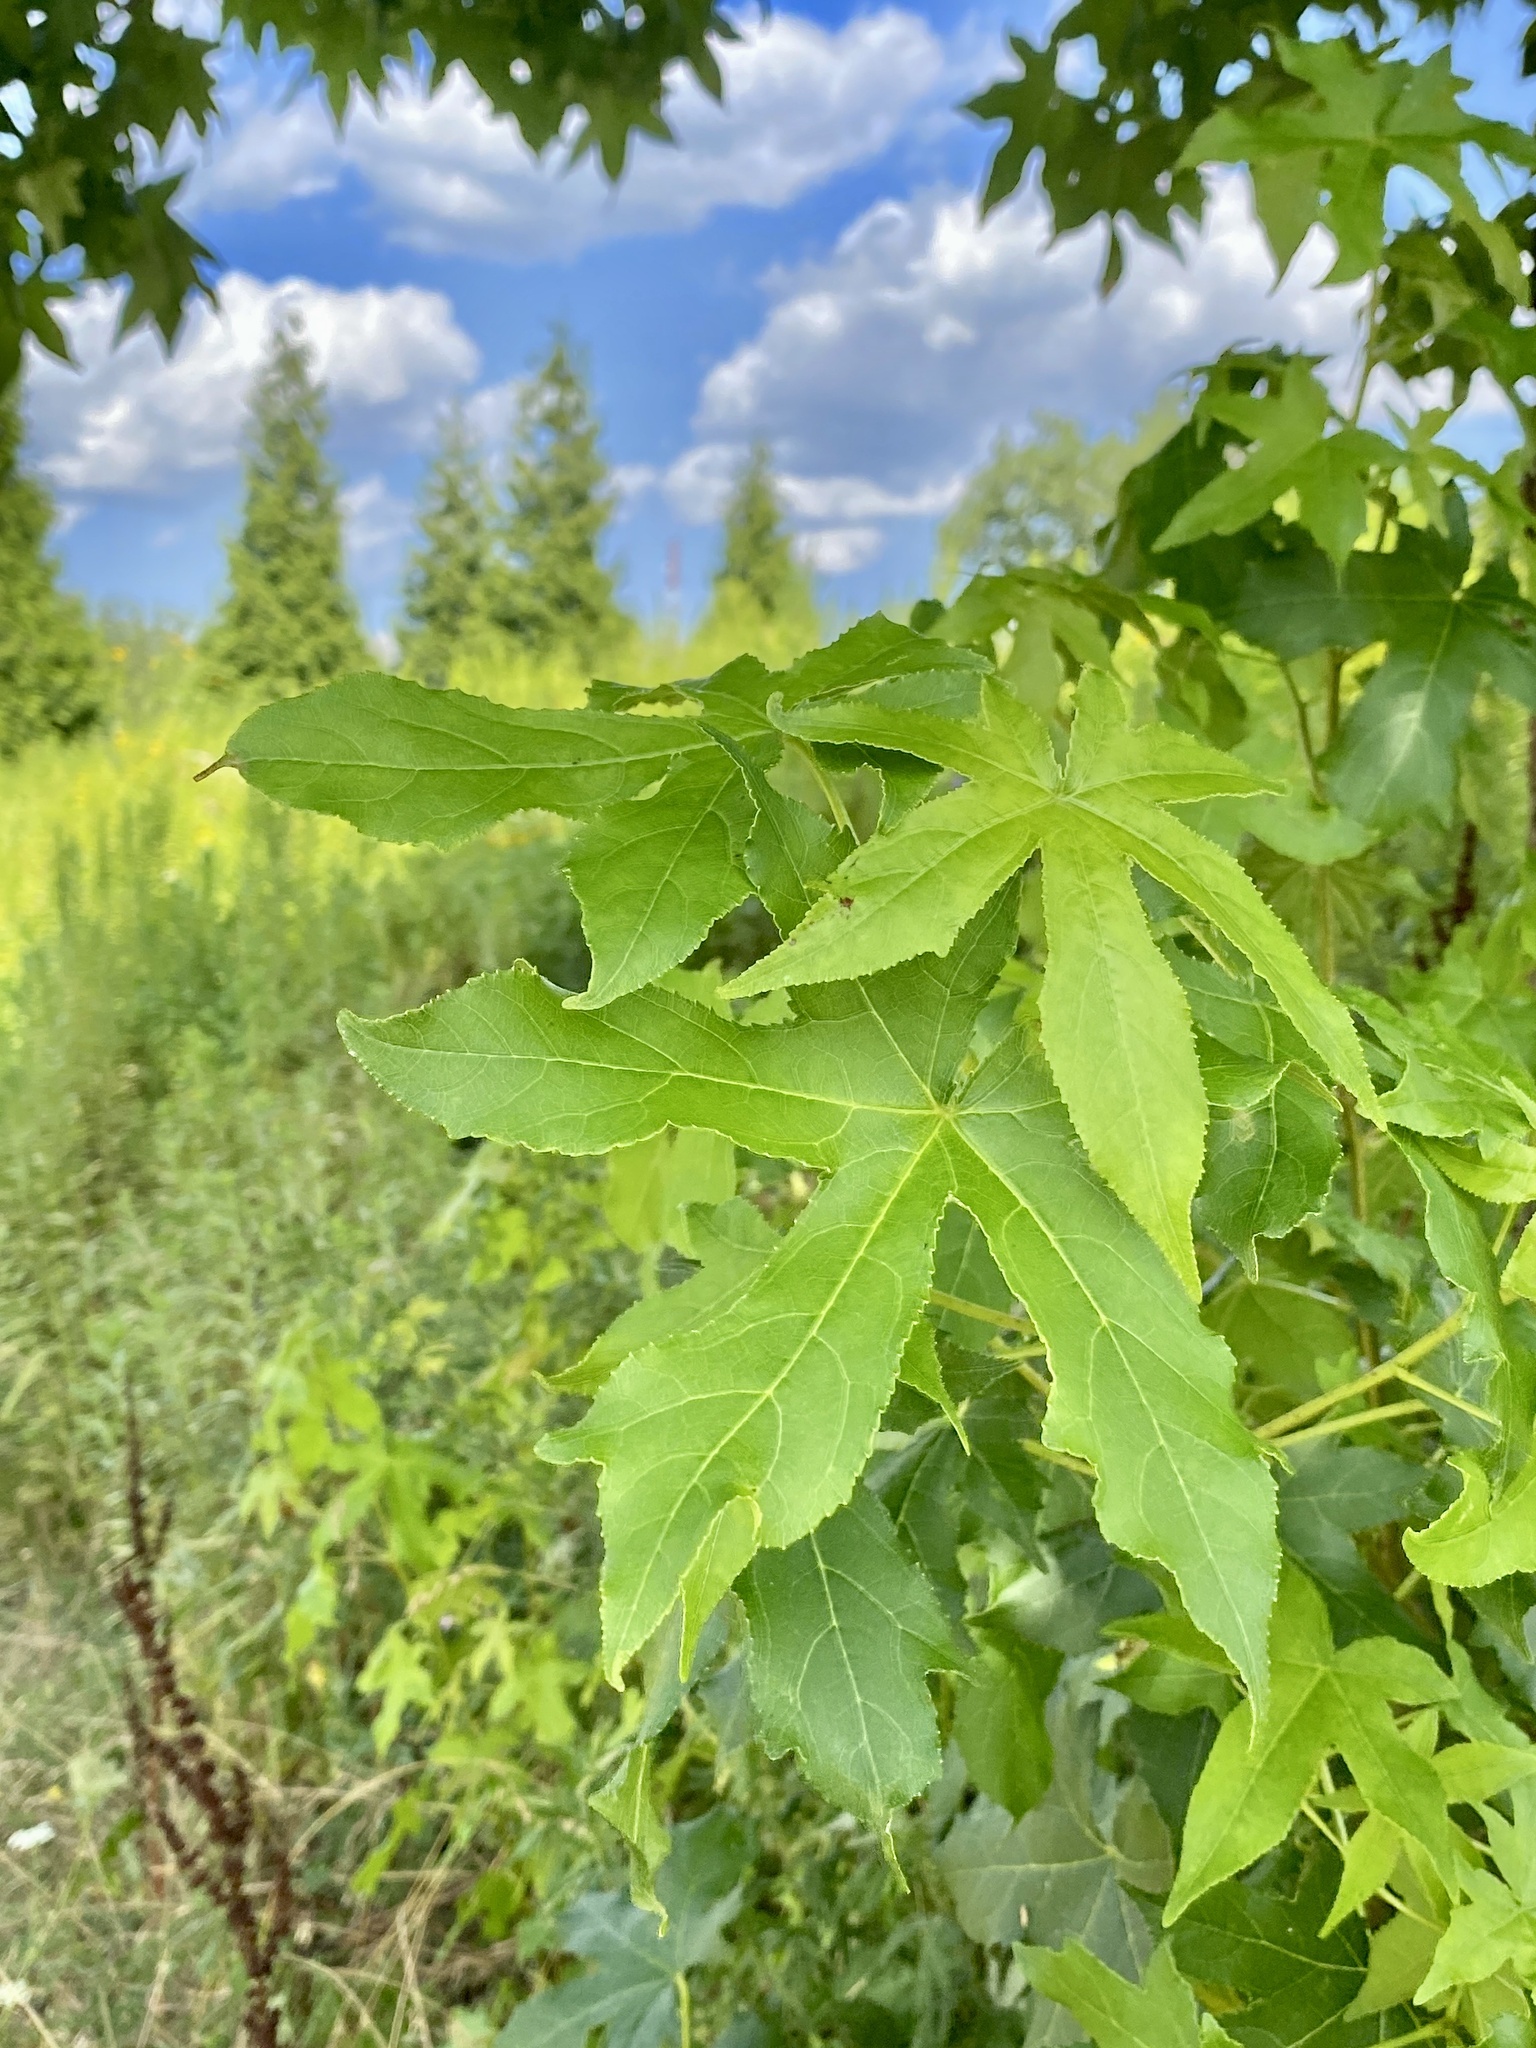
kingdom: Plantae
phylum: Tracheophyta
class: Magnoliopsida
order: Saxifragales
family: Altingiaceae
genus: Liquidambar
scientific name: Liquidambar styraciflua
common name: Sweet gum
